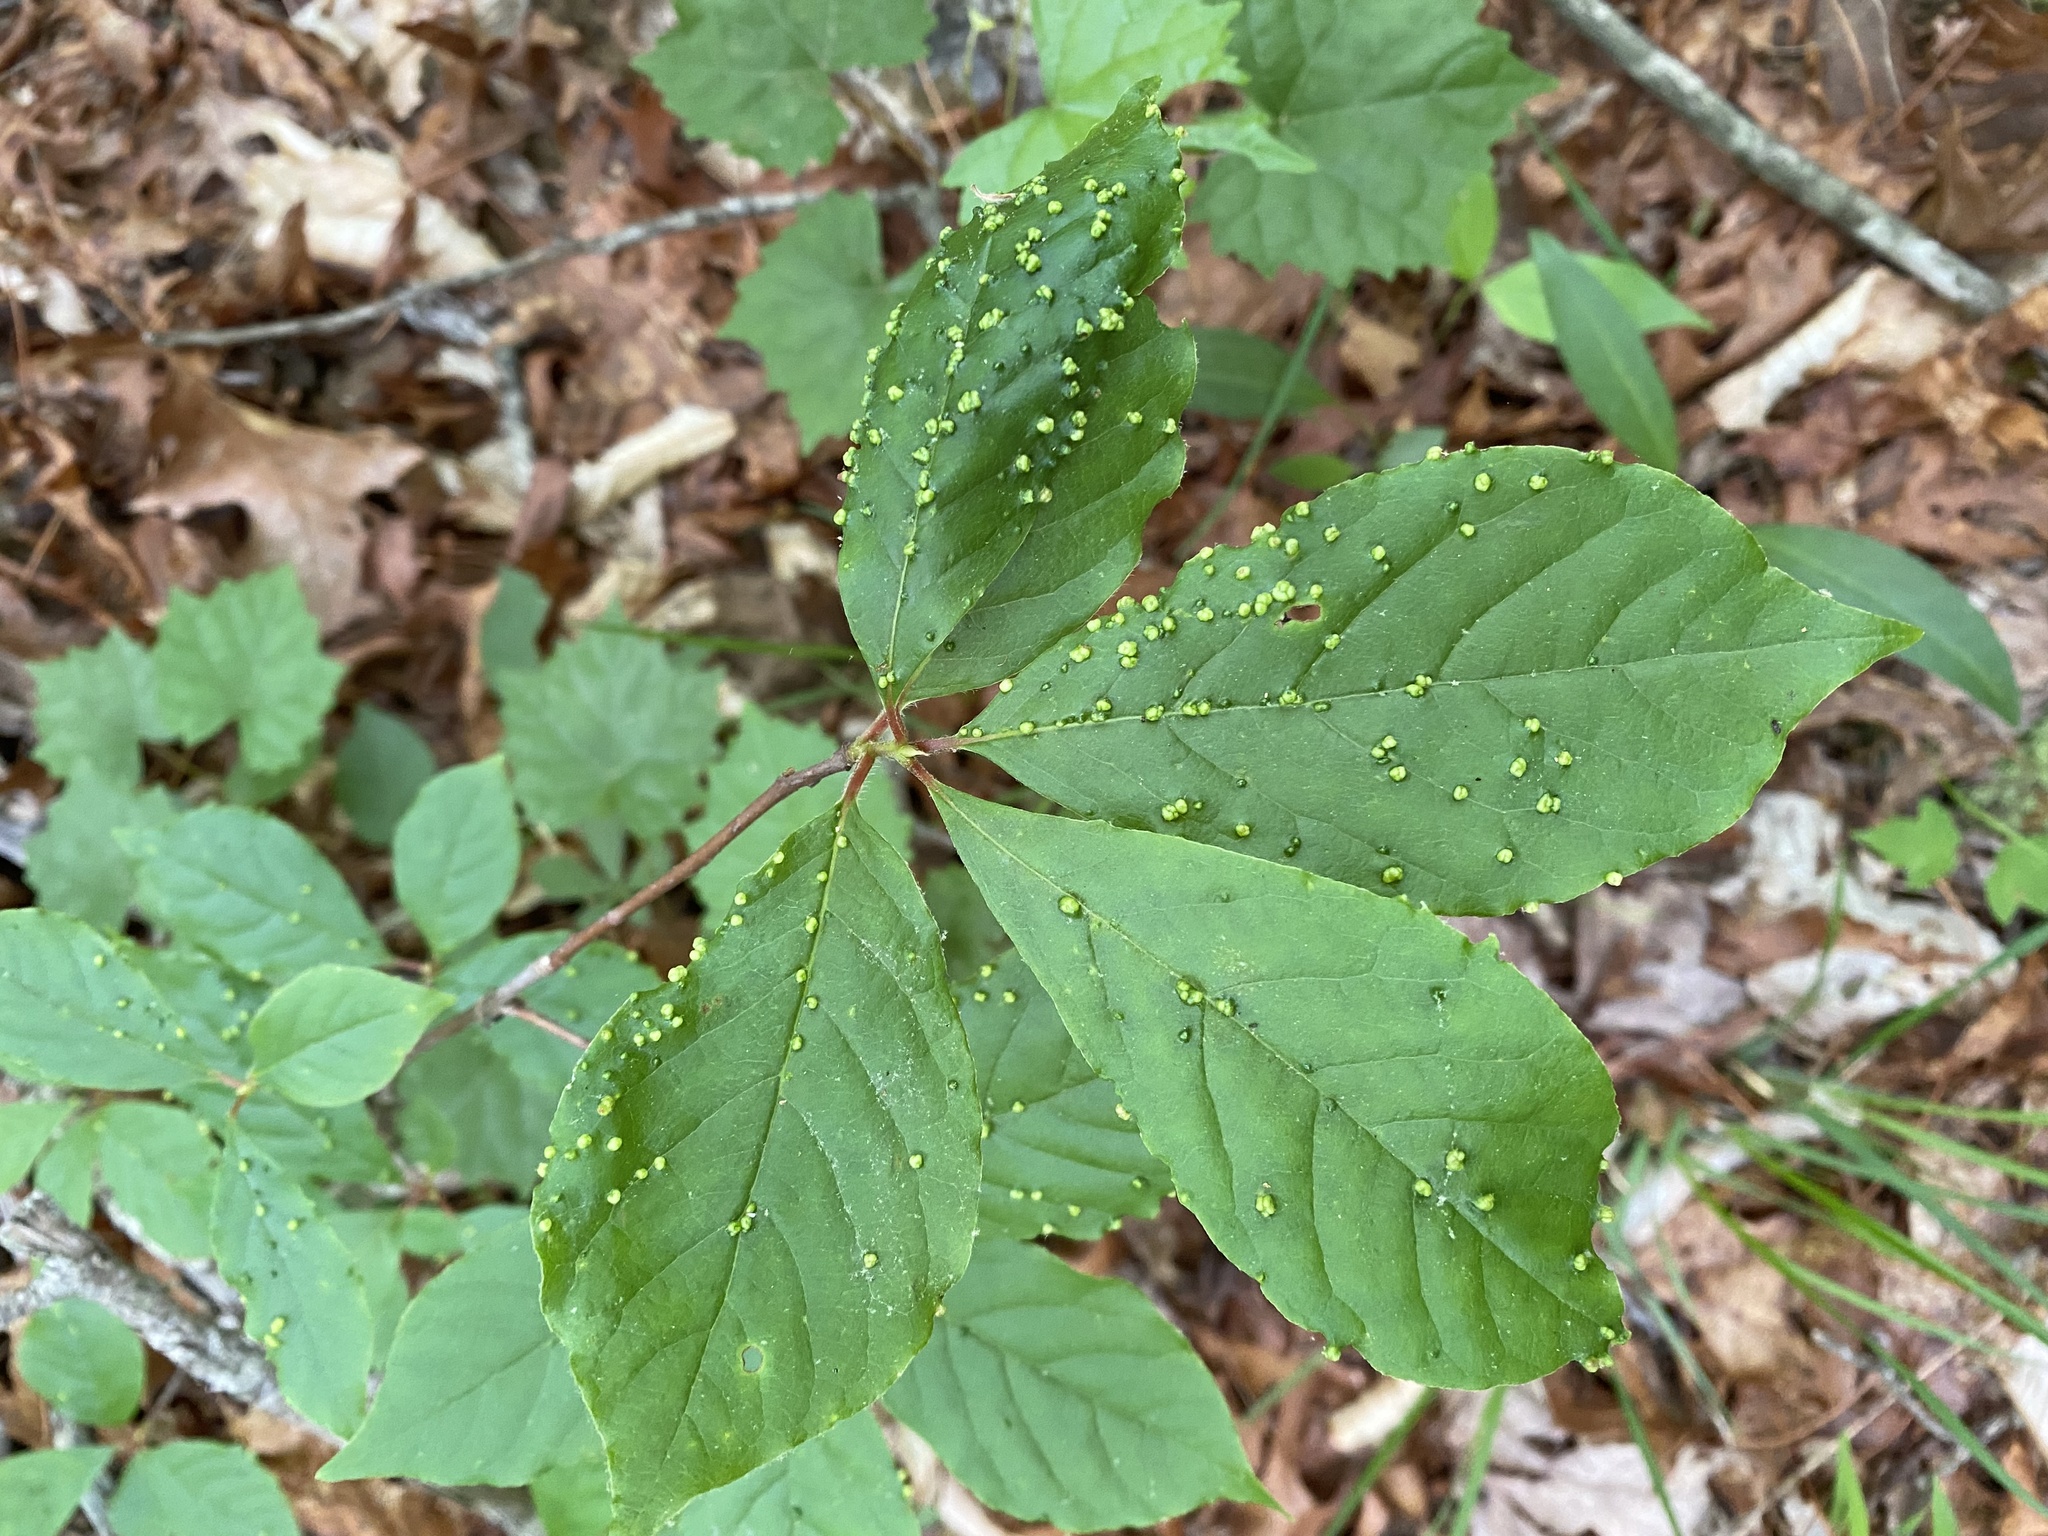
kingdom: Animalia
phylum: Arthropoda
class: Arachnida
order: Trombidiformes
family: Eriophyidae
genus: Aceria
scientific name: Aceria
